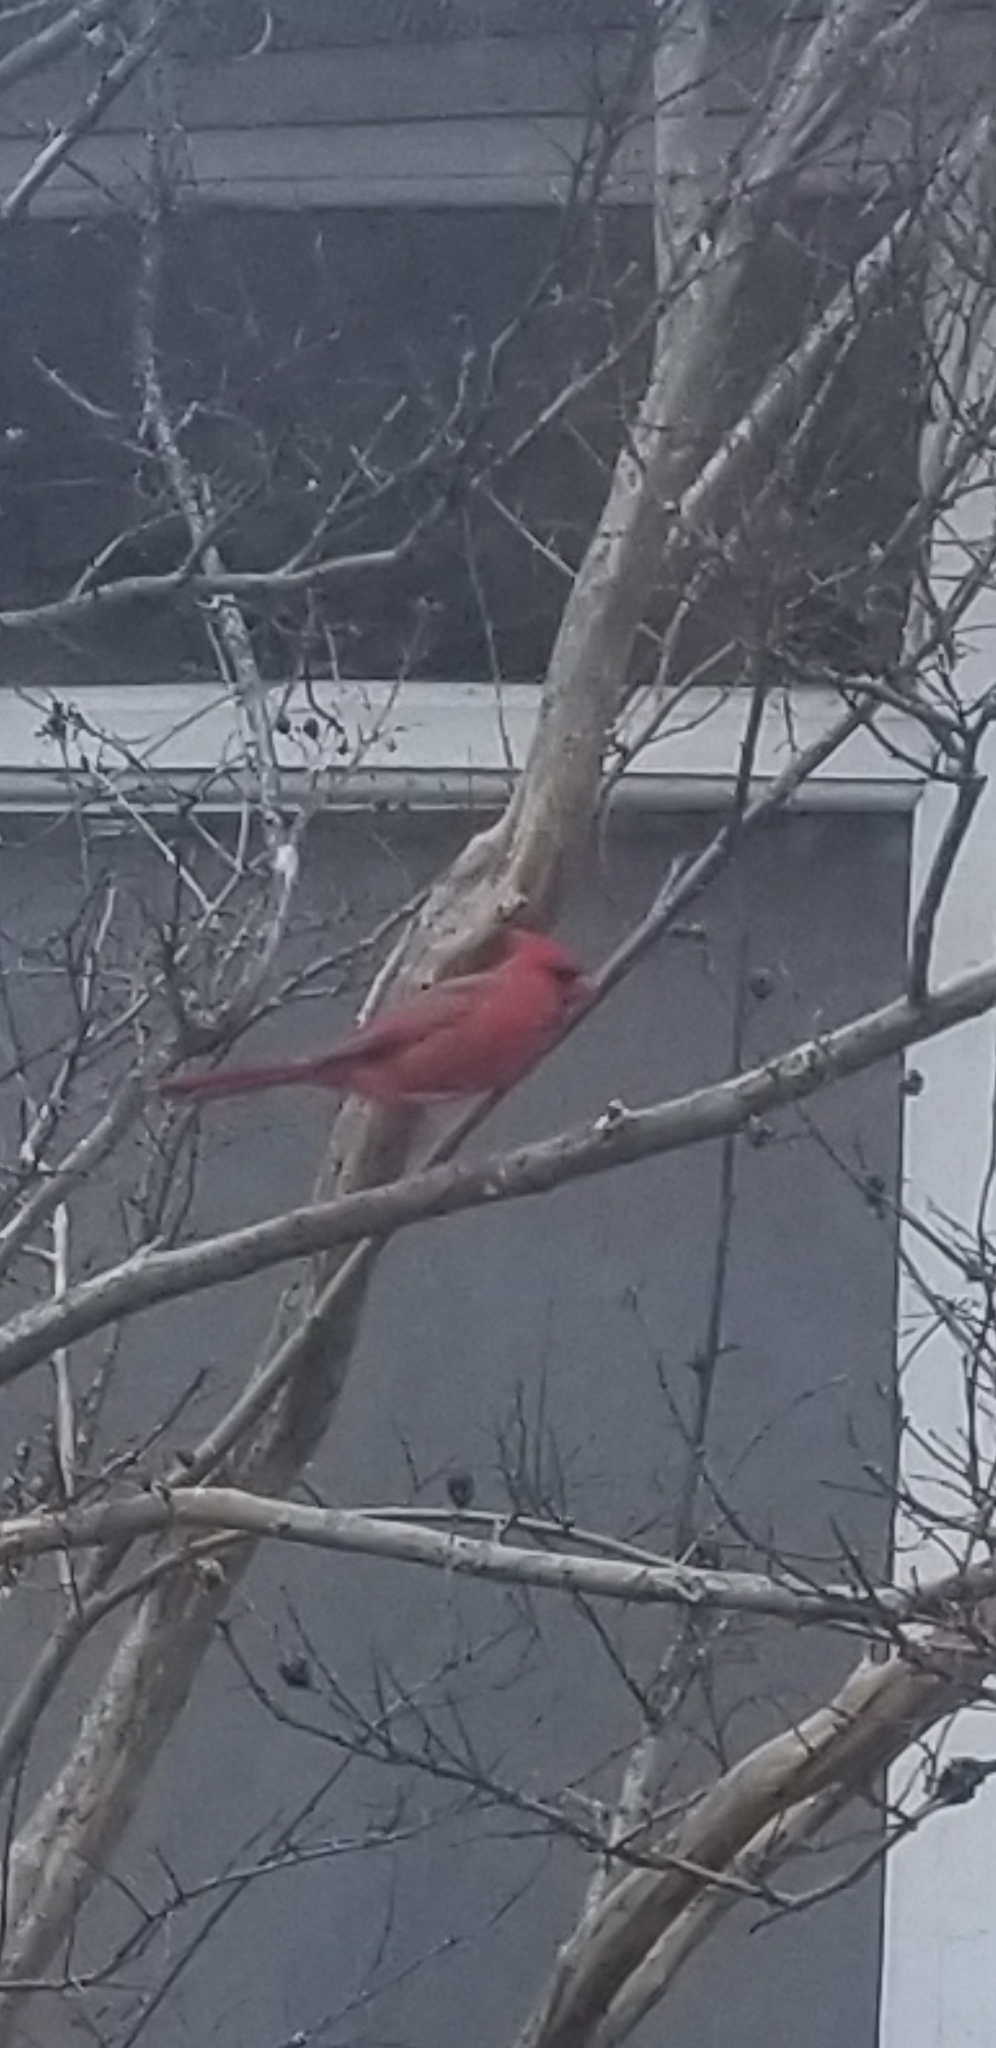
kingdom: Animalia
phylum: Chordata
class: Aves
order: Passeriformes
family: Cardinalidae
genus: Cardinalis
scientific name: Cardinalis cardinalis
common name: Northern cardinal
